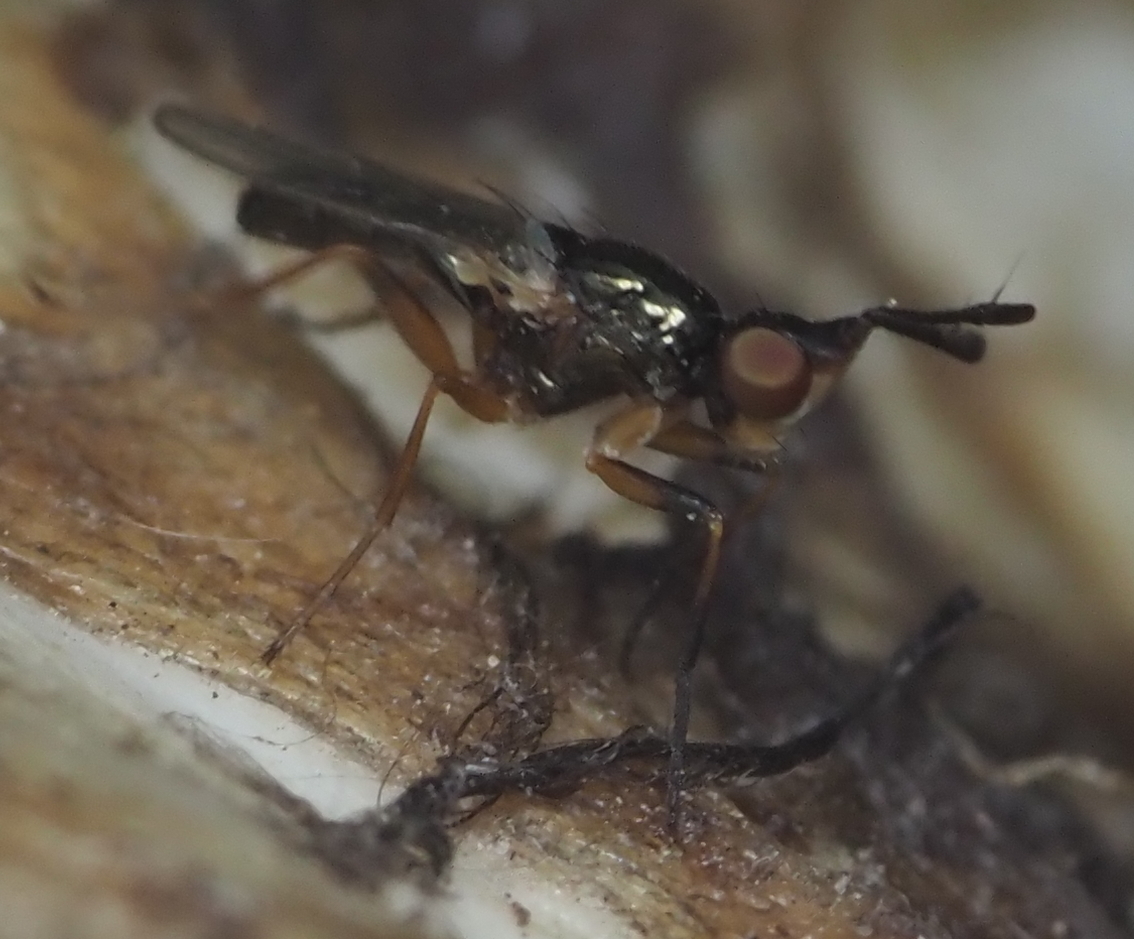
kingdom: Animalia
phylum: Arthropoda
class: Insecta
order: Diptera
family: Piophilidae
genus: Prochyliza
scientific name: Prochyliza xanthostoma
